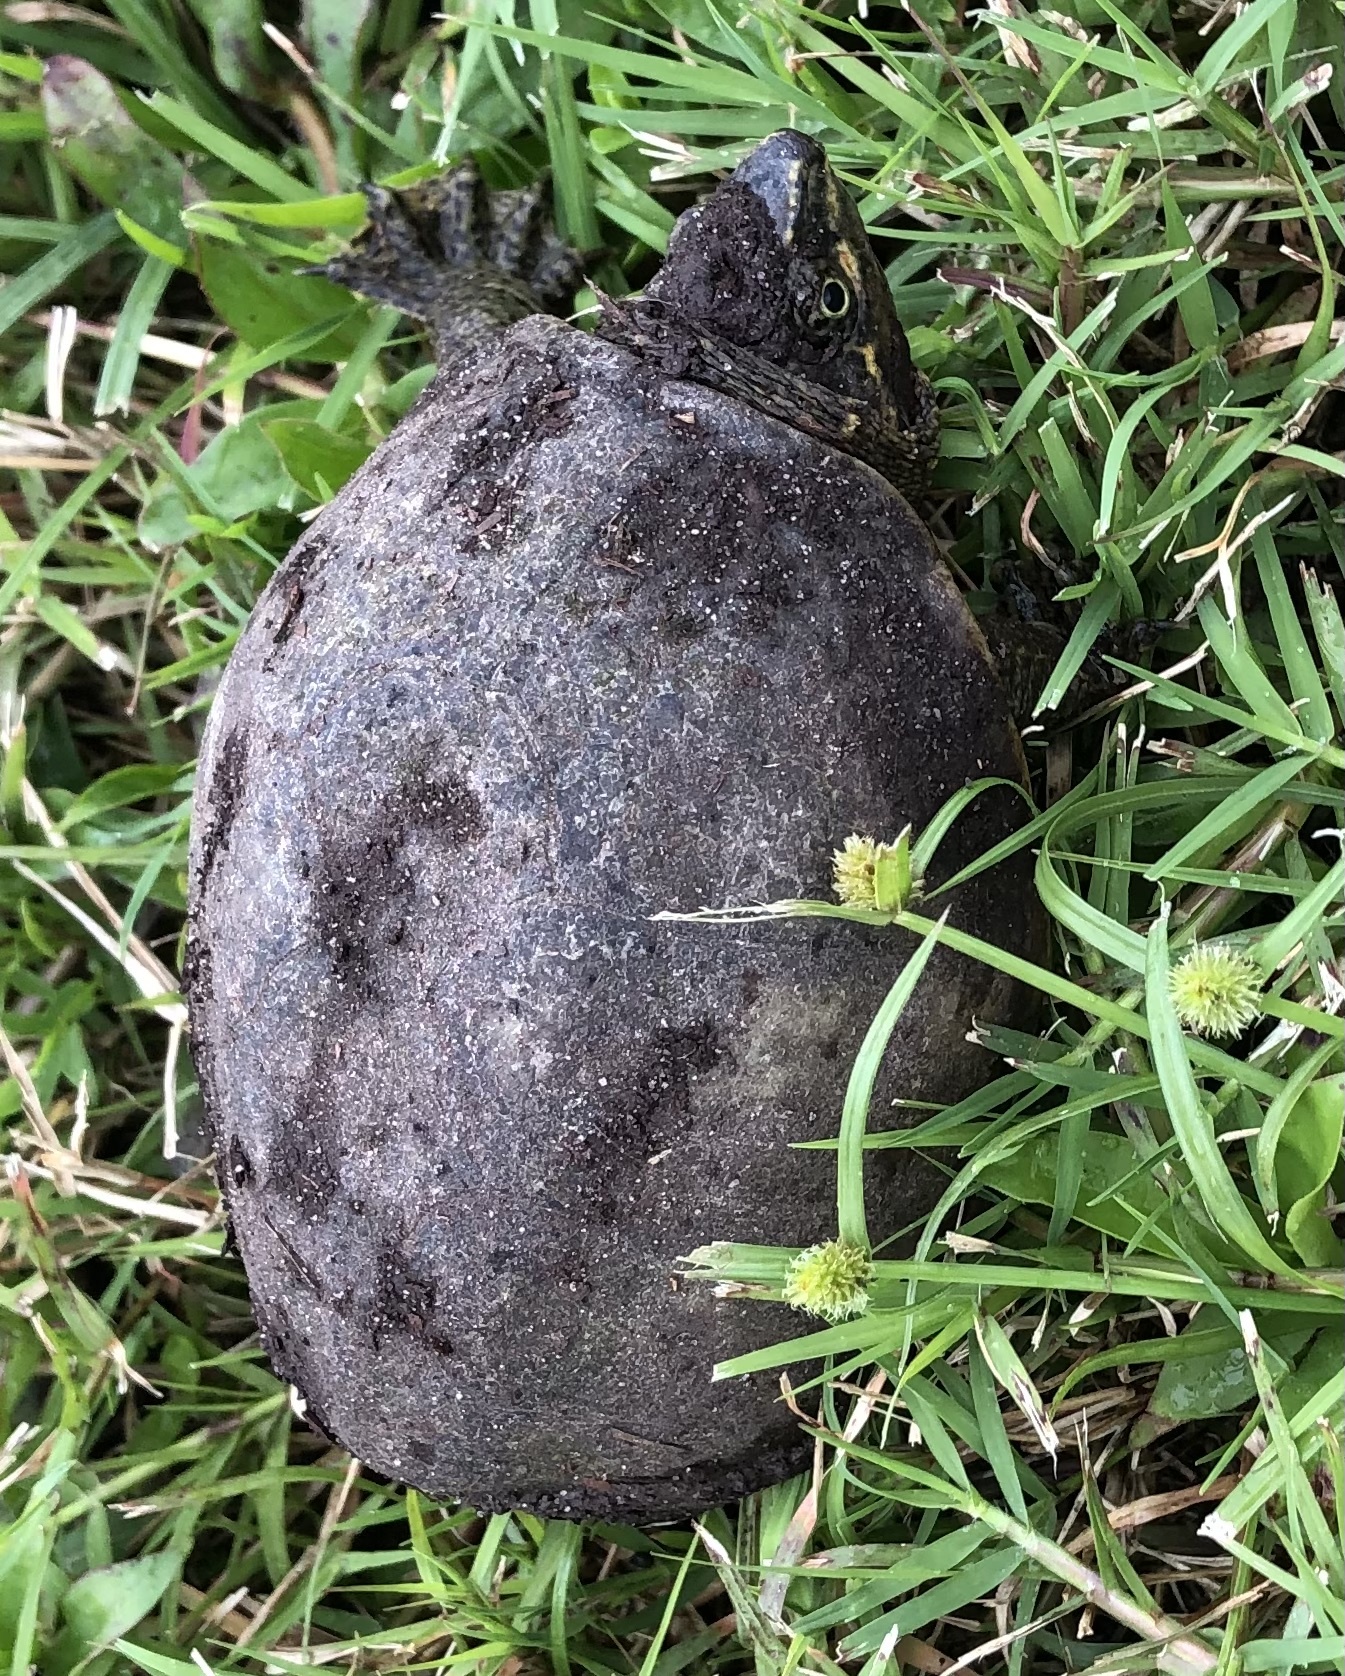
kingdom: Animalia
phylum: Chordata
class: Testudines
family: Kinosternidae
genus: Sternotherus
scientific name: Sternotherus odoratus
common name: Common musk turtle
